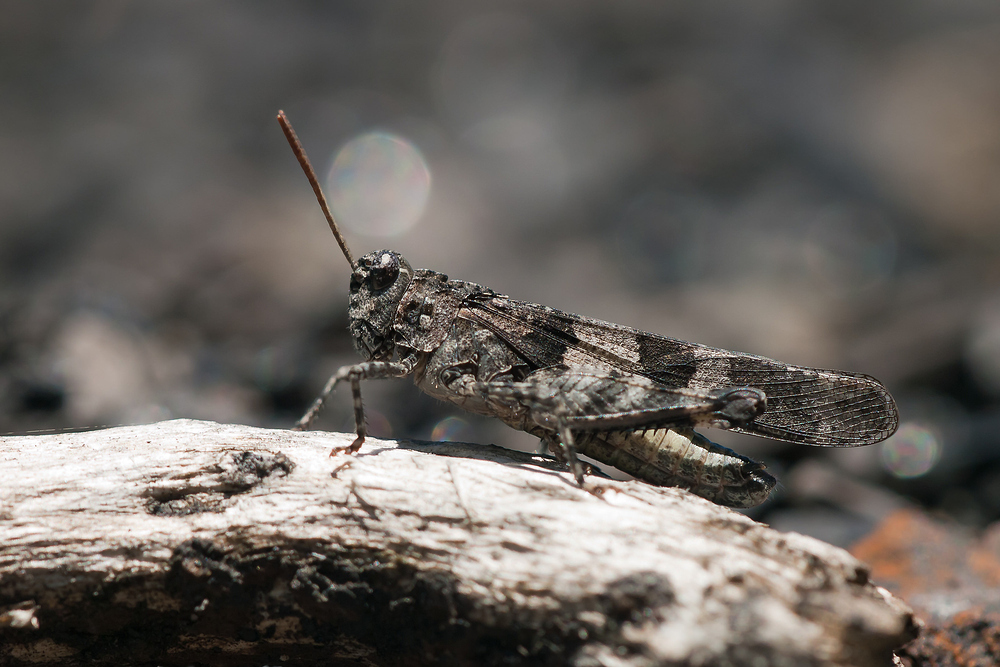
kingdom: Animalia
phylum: Arthropoda
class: Insecta
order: Orthoptera
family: Acrididae
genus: Oedipoda
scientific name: Oedipoda caerulescens
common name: Blue-winged grasshopper
